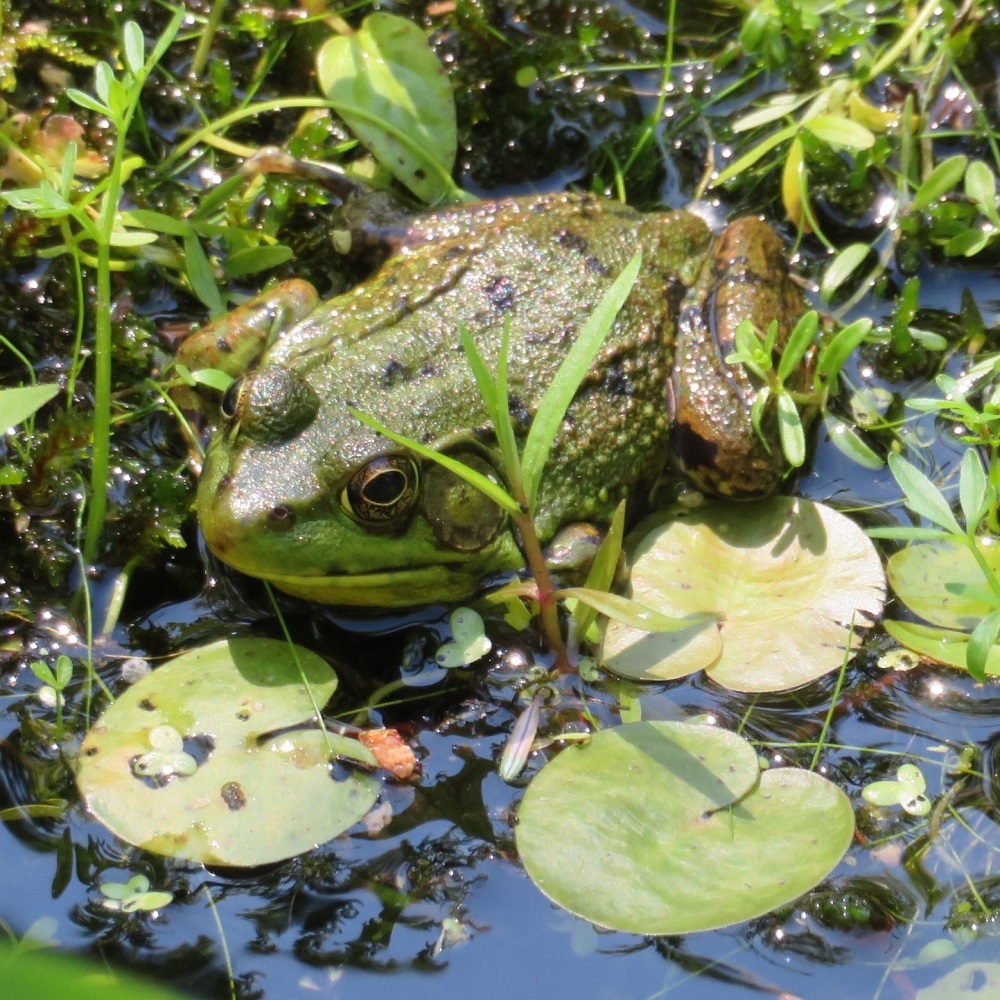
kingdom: Animalia
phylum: Chordata
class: Amphibia
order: Anura
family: Ranidae
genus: Lithobates
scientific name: Lithobates clamitans
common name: Green frog
